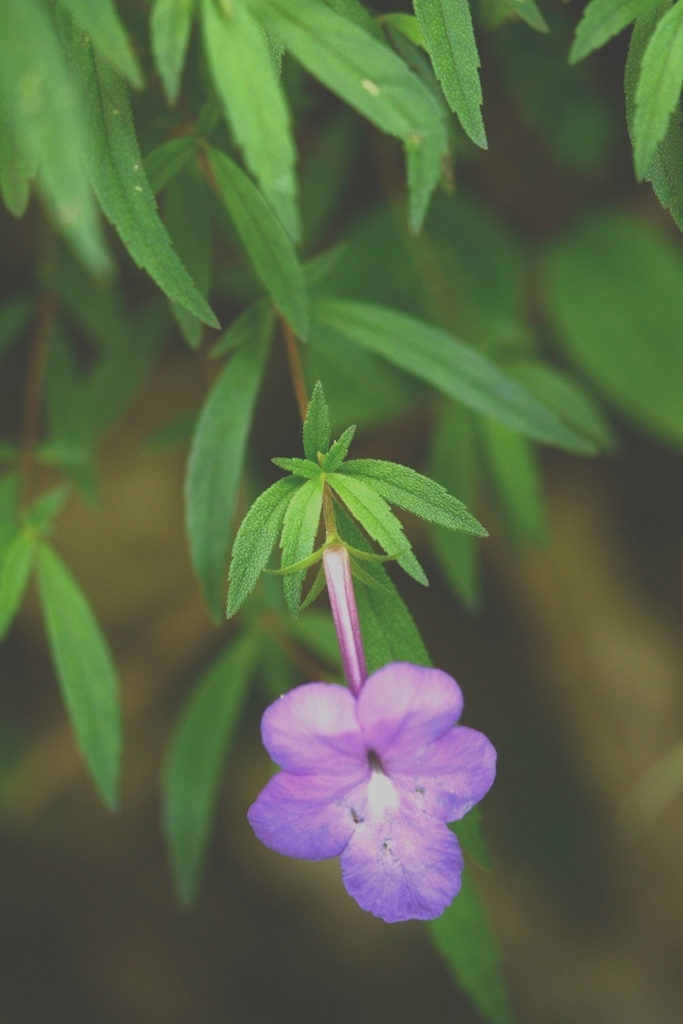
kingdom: Plantae
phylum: Tracheophyta
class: Magnoliopsida
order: Lamiales
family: Gesneriaceae
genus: Achimenes
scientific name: Achimenes cettoana
